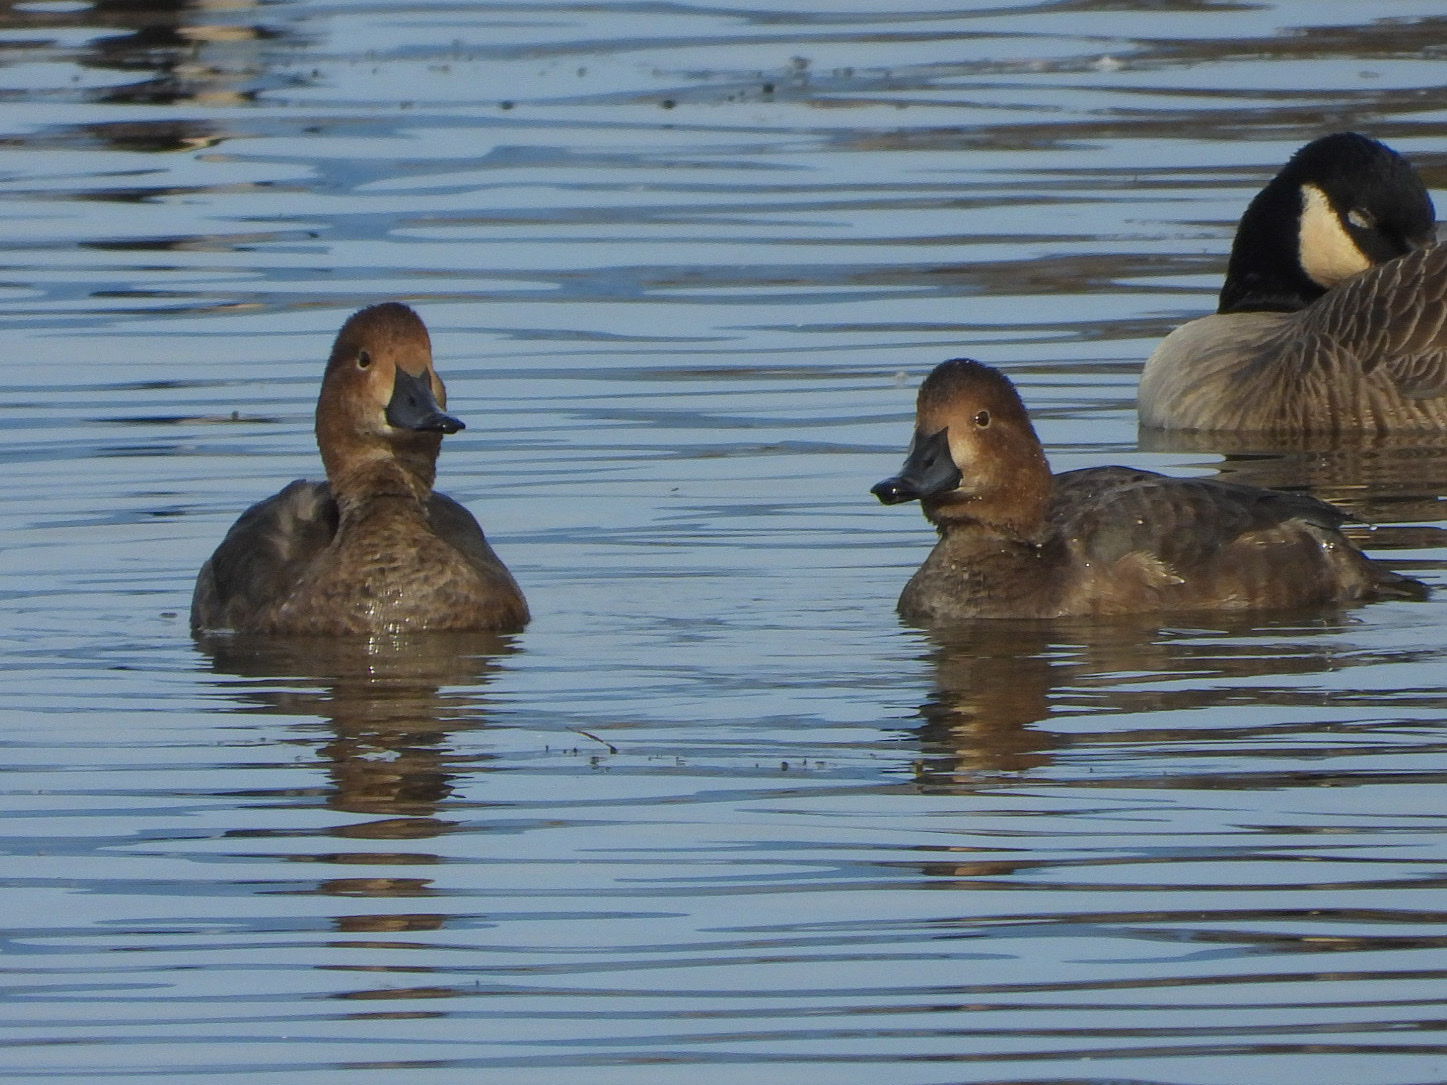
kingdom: Animalia
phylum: Chordata
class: Aves
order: Anseriformes
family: Anatidae
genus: Aythya
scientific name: Aythya americana
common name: Redhead
